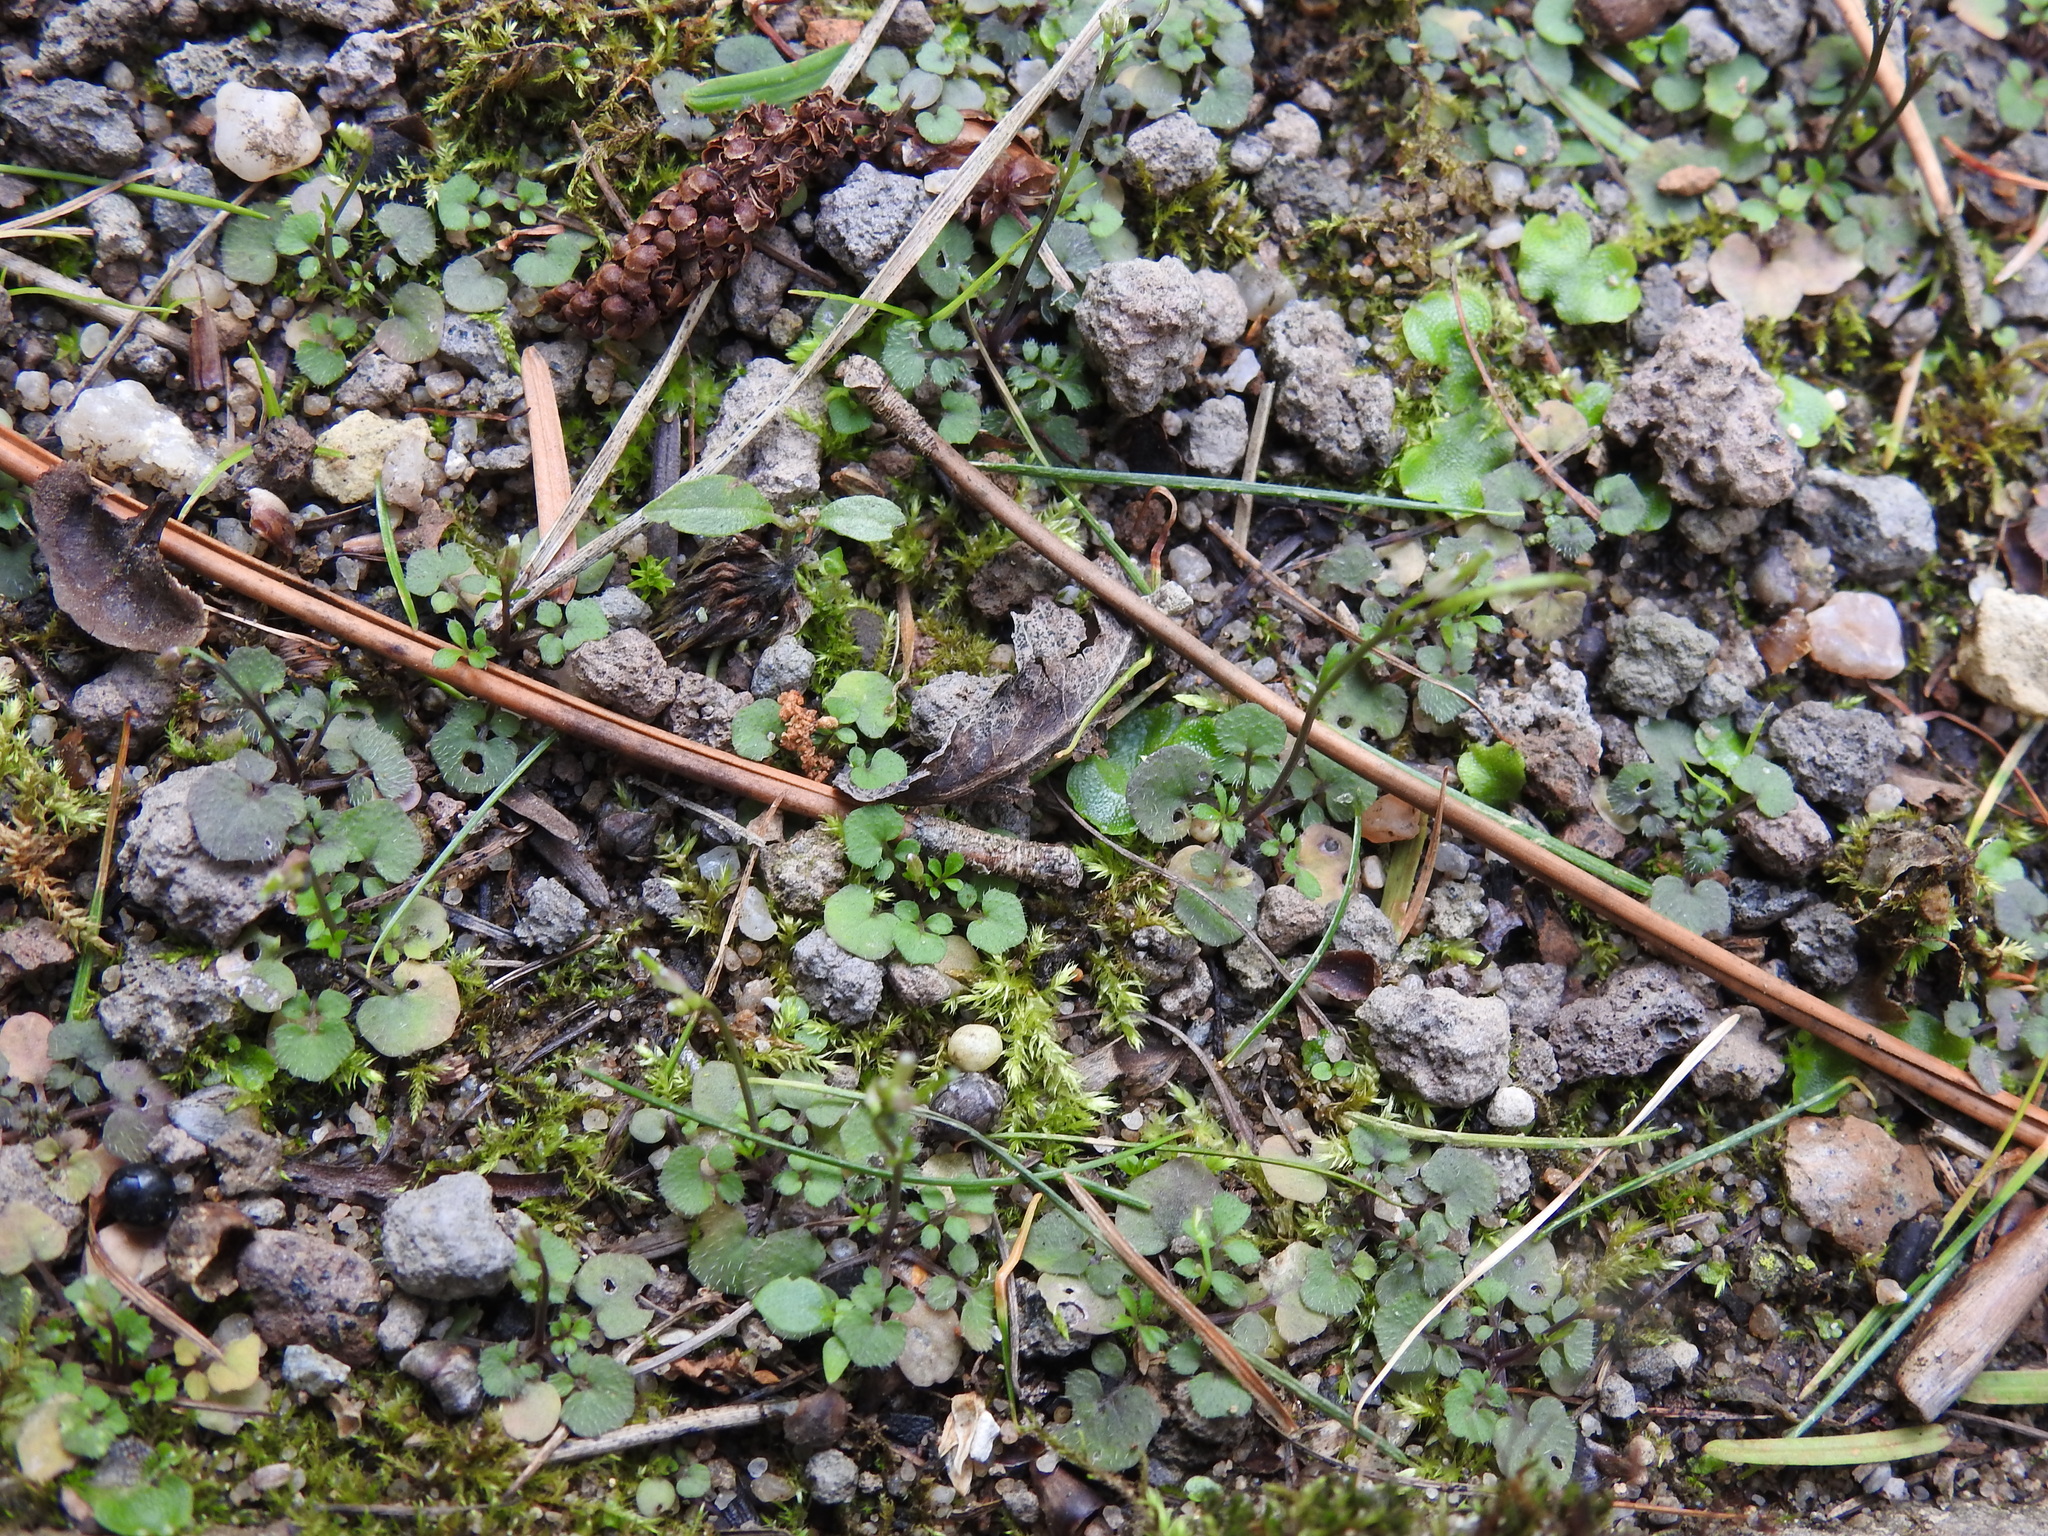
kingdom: Plantae
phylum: Tracheophyta
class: Magnoliopsida
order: Brassicales
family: Brassicaceae
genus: Cardamine
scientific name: Cardamine hirsuta
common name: Hairy bittercress
